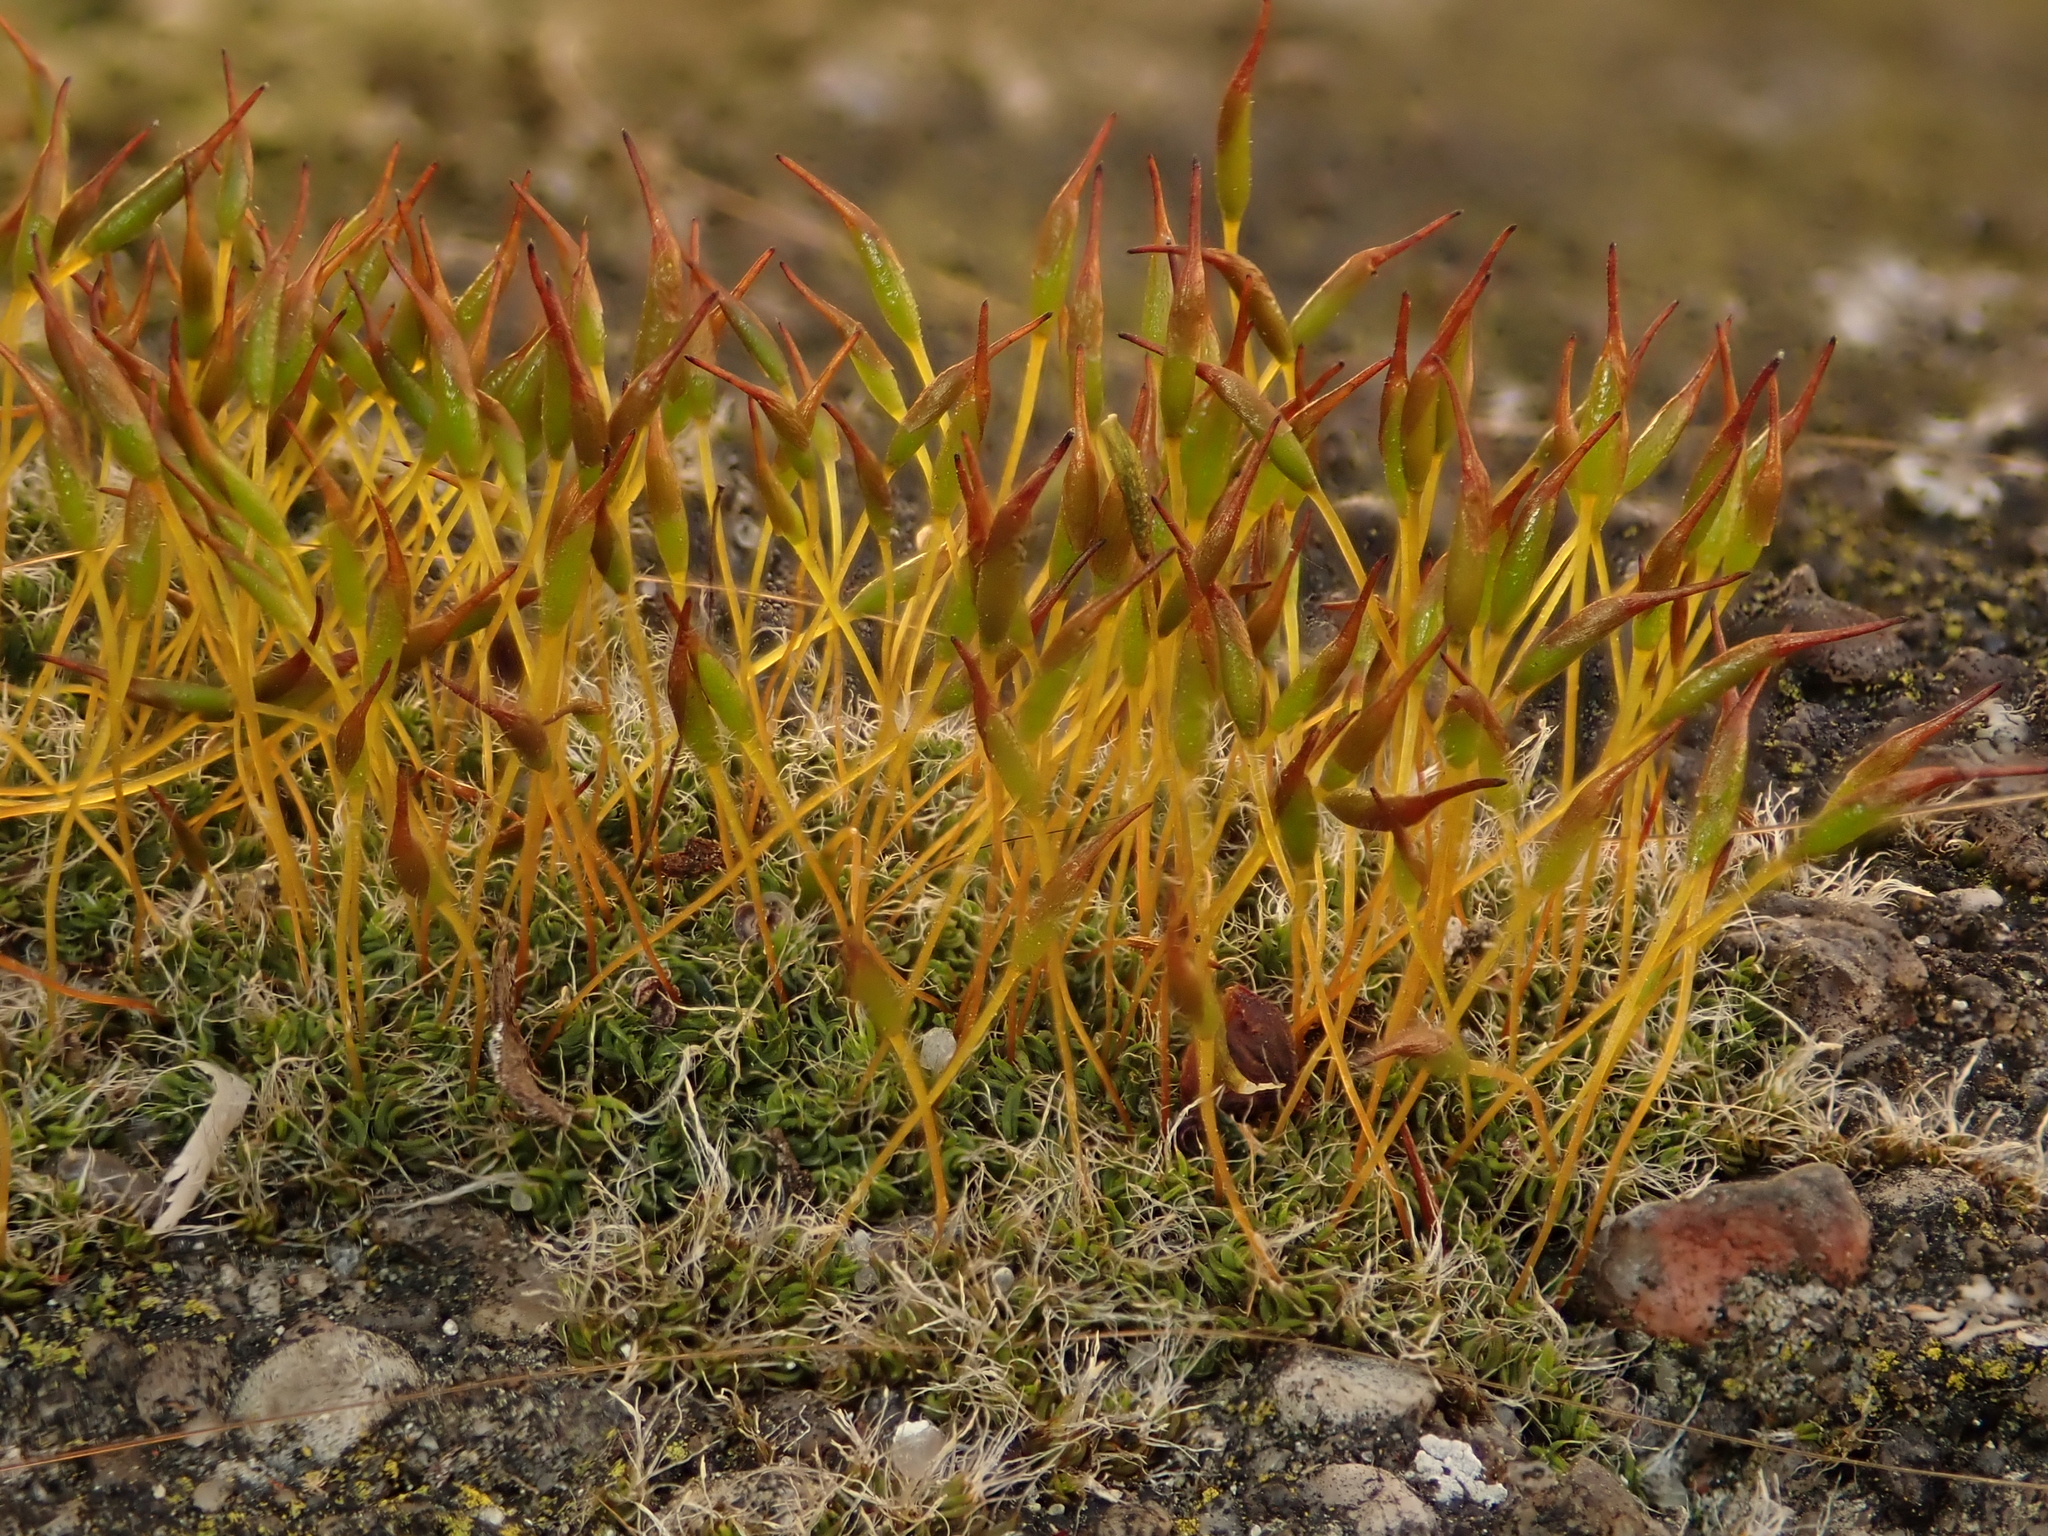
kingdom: Plantae
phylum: Bryophyta
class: Bryopsida
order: Pottiales
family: Pottiaceae
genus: Tortula
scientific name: Tortula muralis
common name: Wall screw-moss
